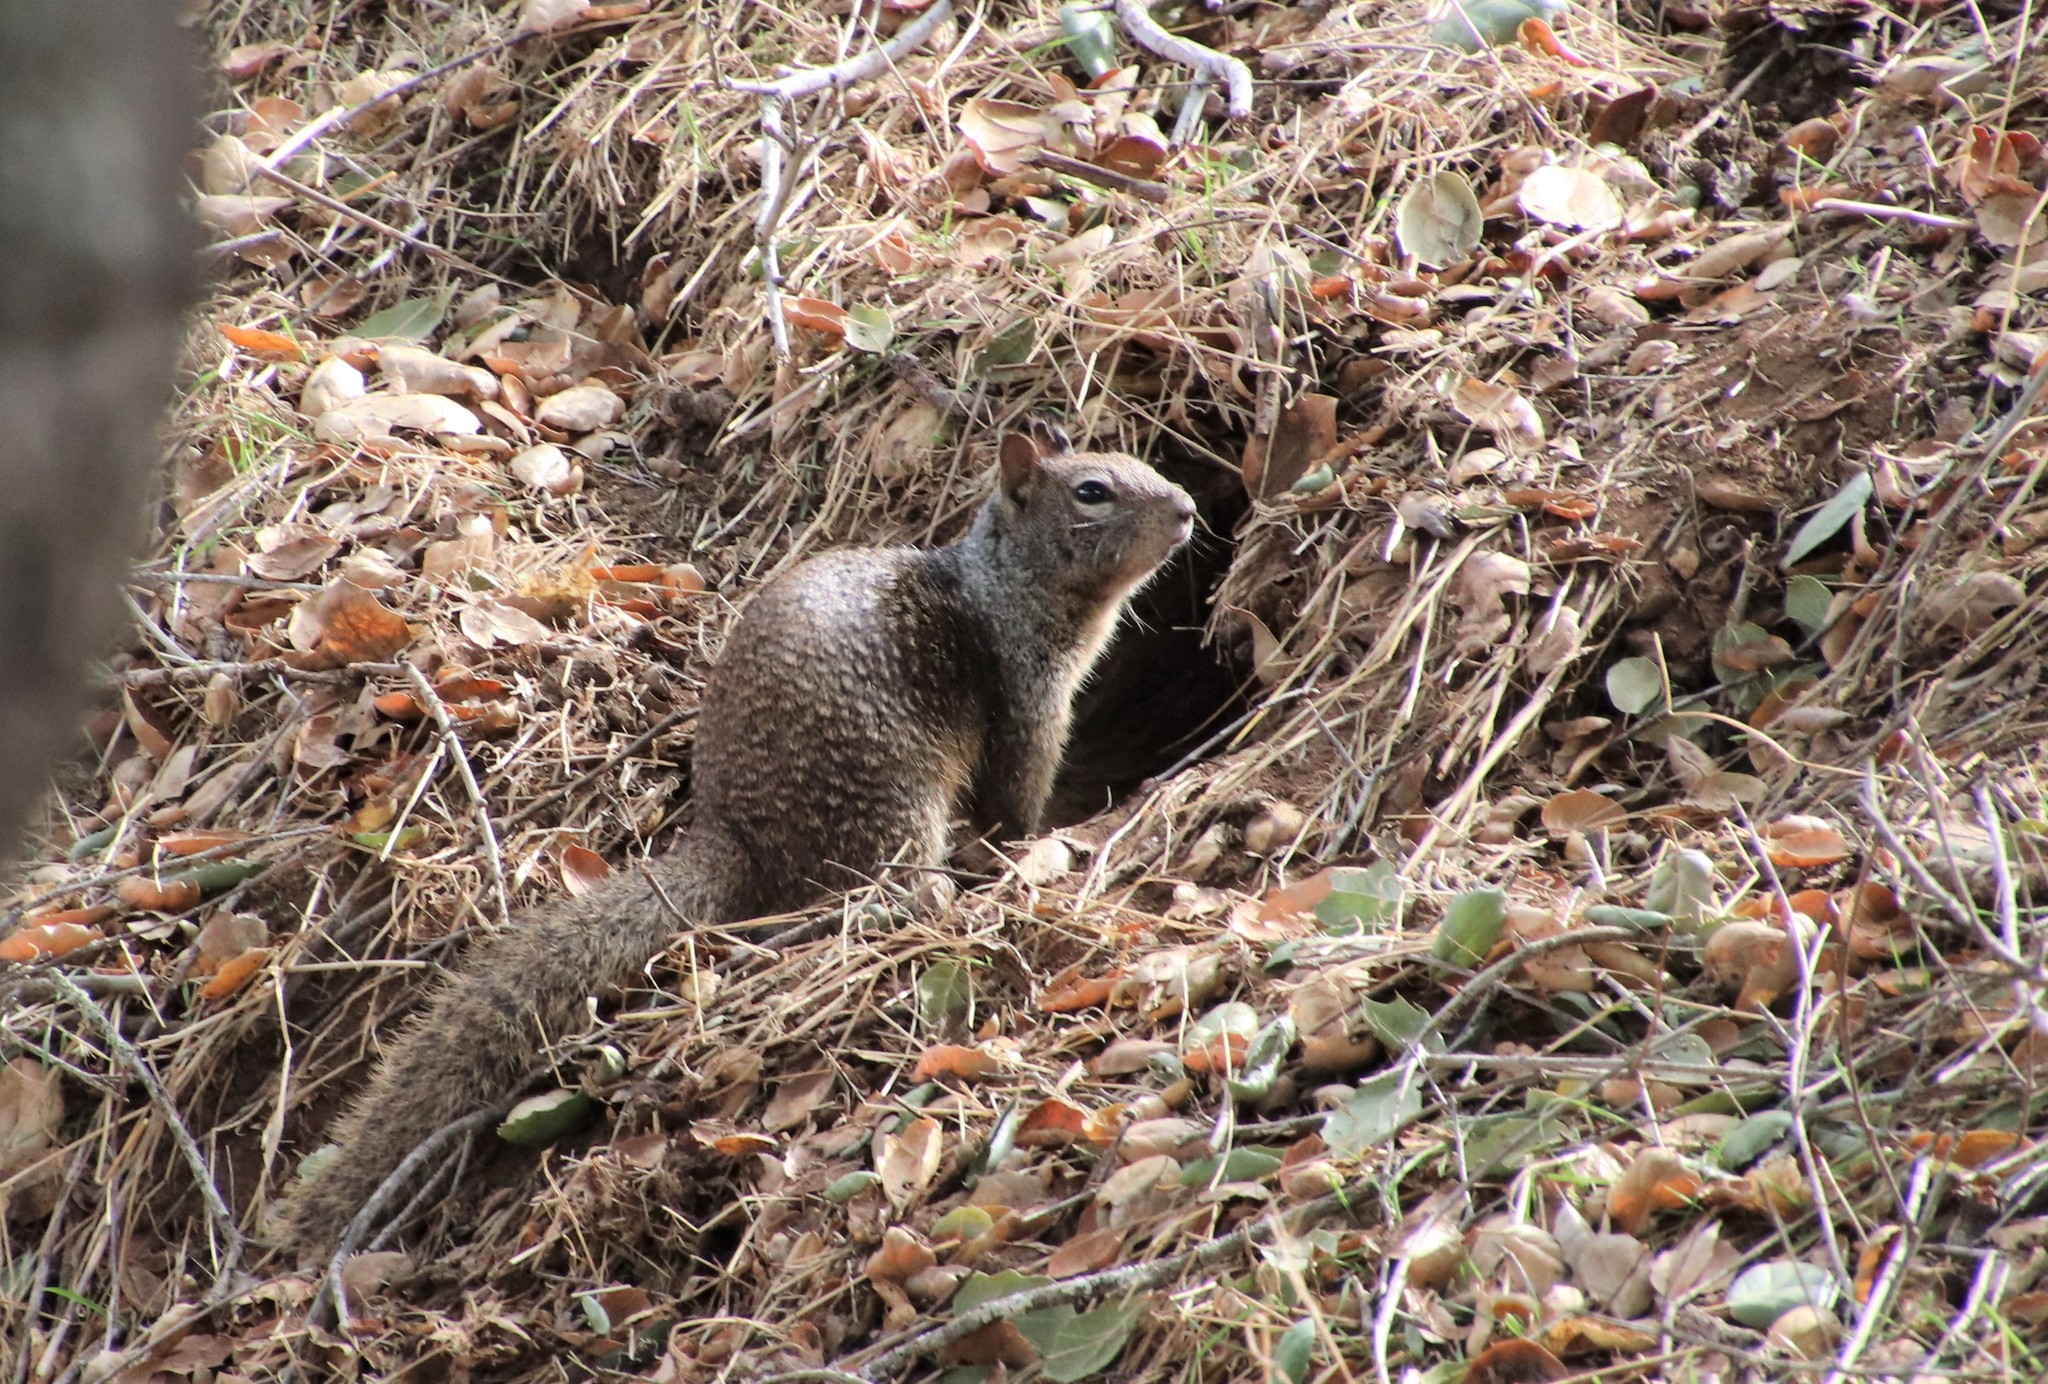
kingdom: Animalia
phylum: Chordata
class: Mammalia
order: Rodentia
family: Sciuridae
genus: Otospermophilus
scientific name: Otospermophilus beecheyi
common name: California ground squirrel
